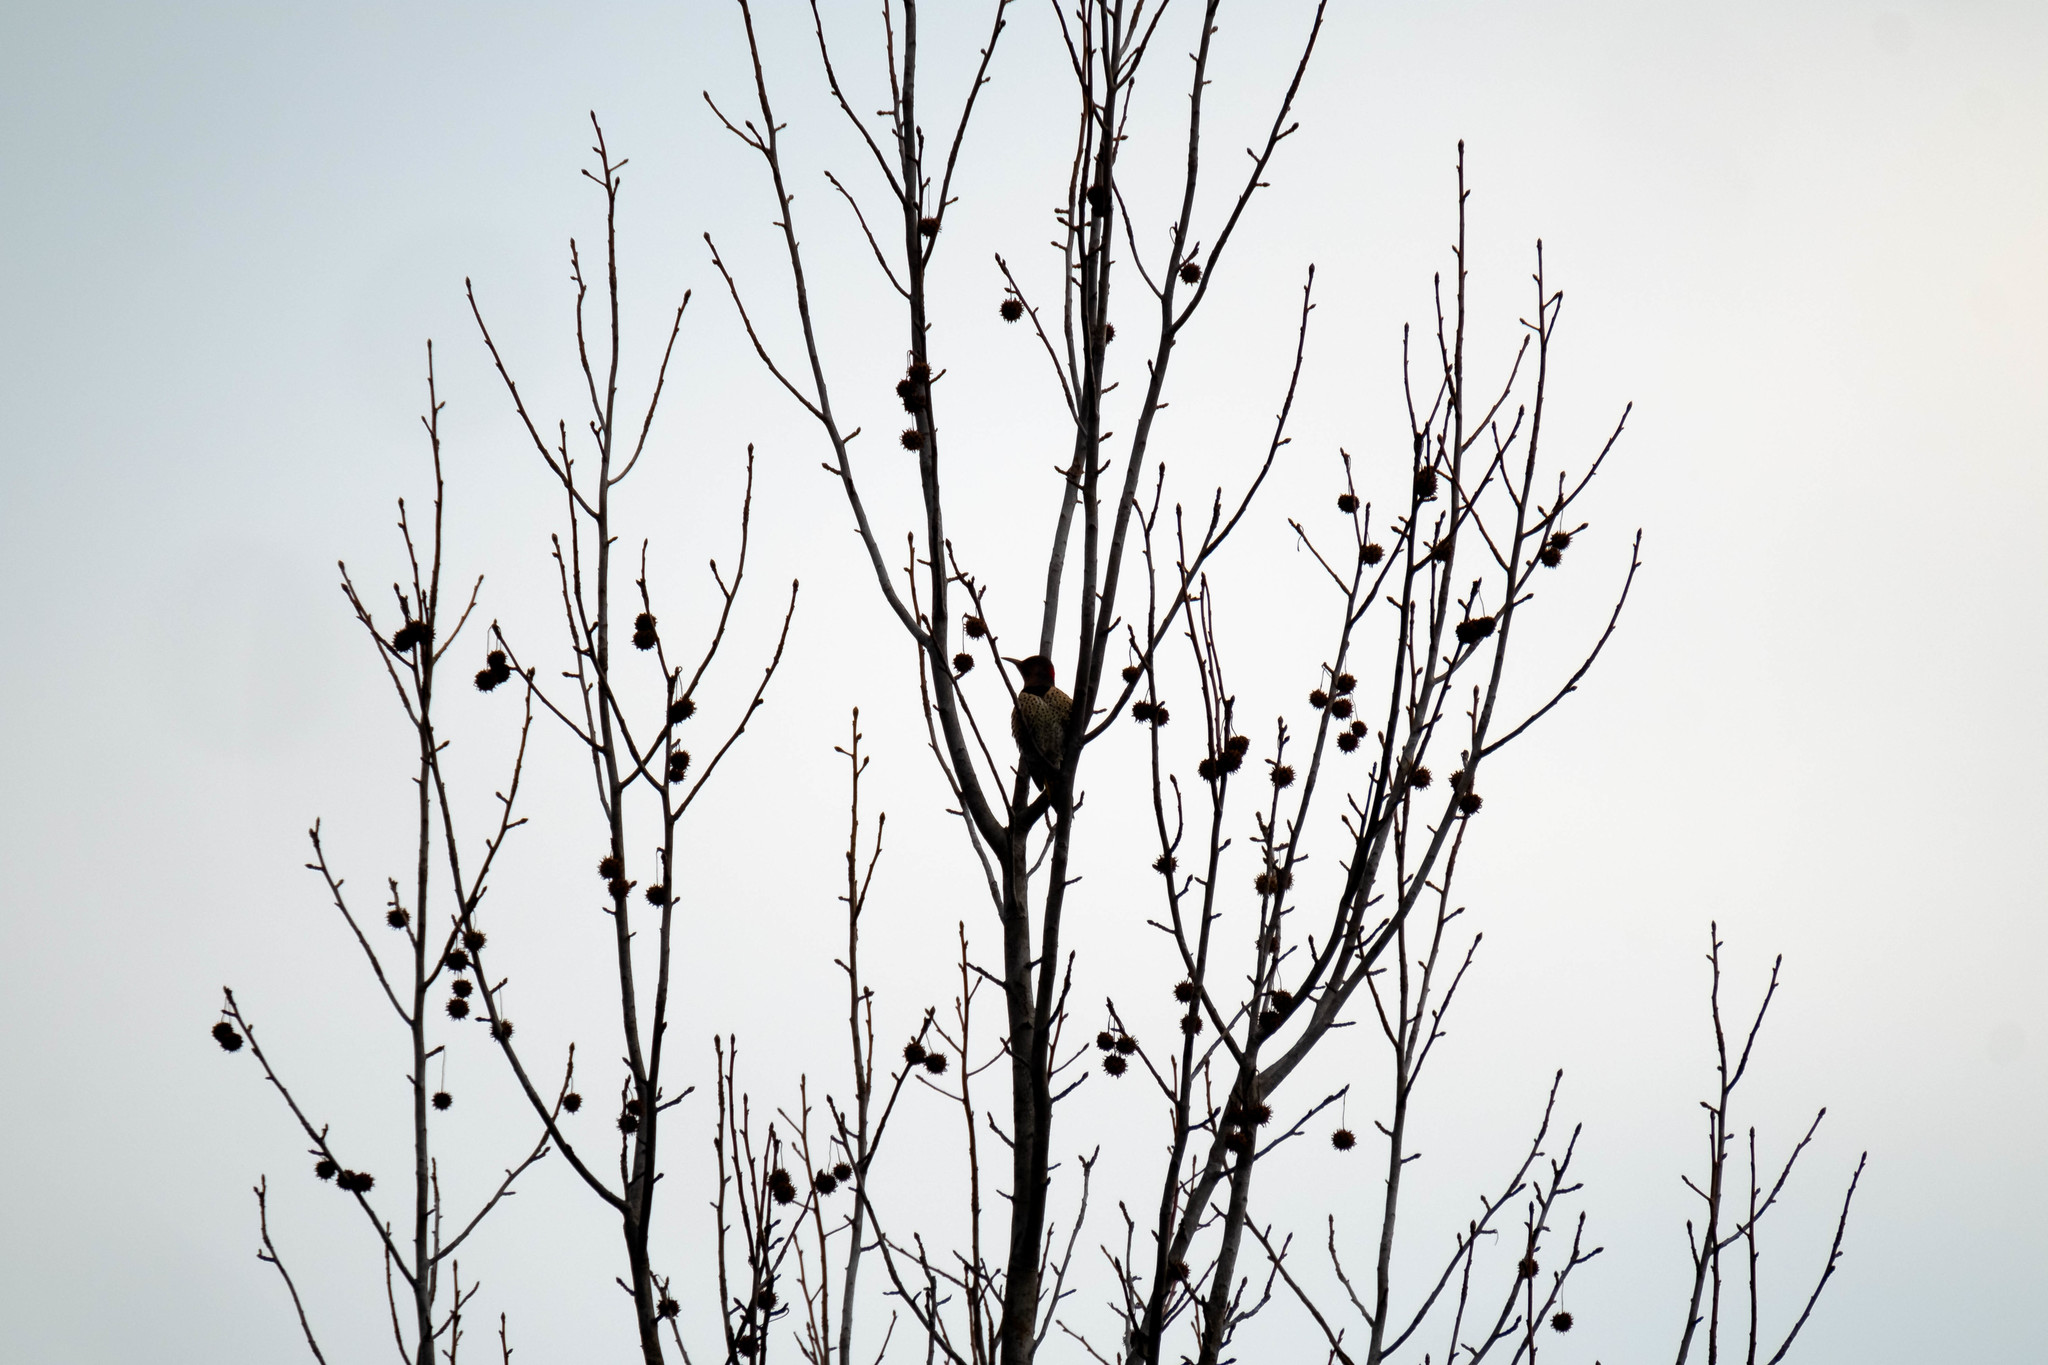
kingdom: Plantae
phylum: Tracheophyta
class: Magnoliopsida
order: Saxifragales
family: Altingiaceae
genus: Liquidambar
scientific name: Liquidambar styraciflua
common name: Sweet gum
